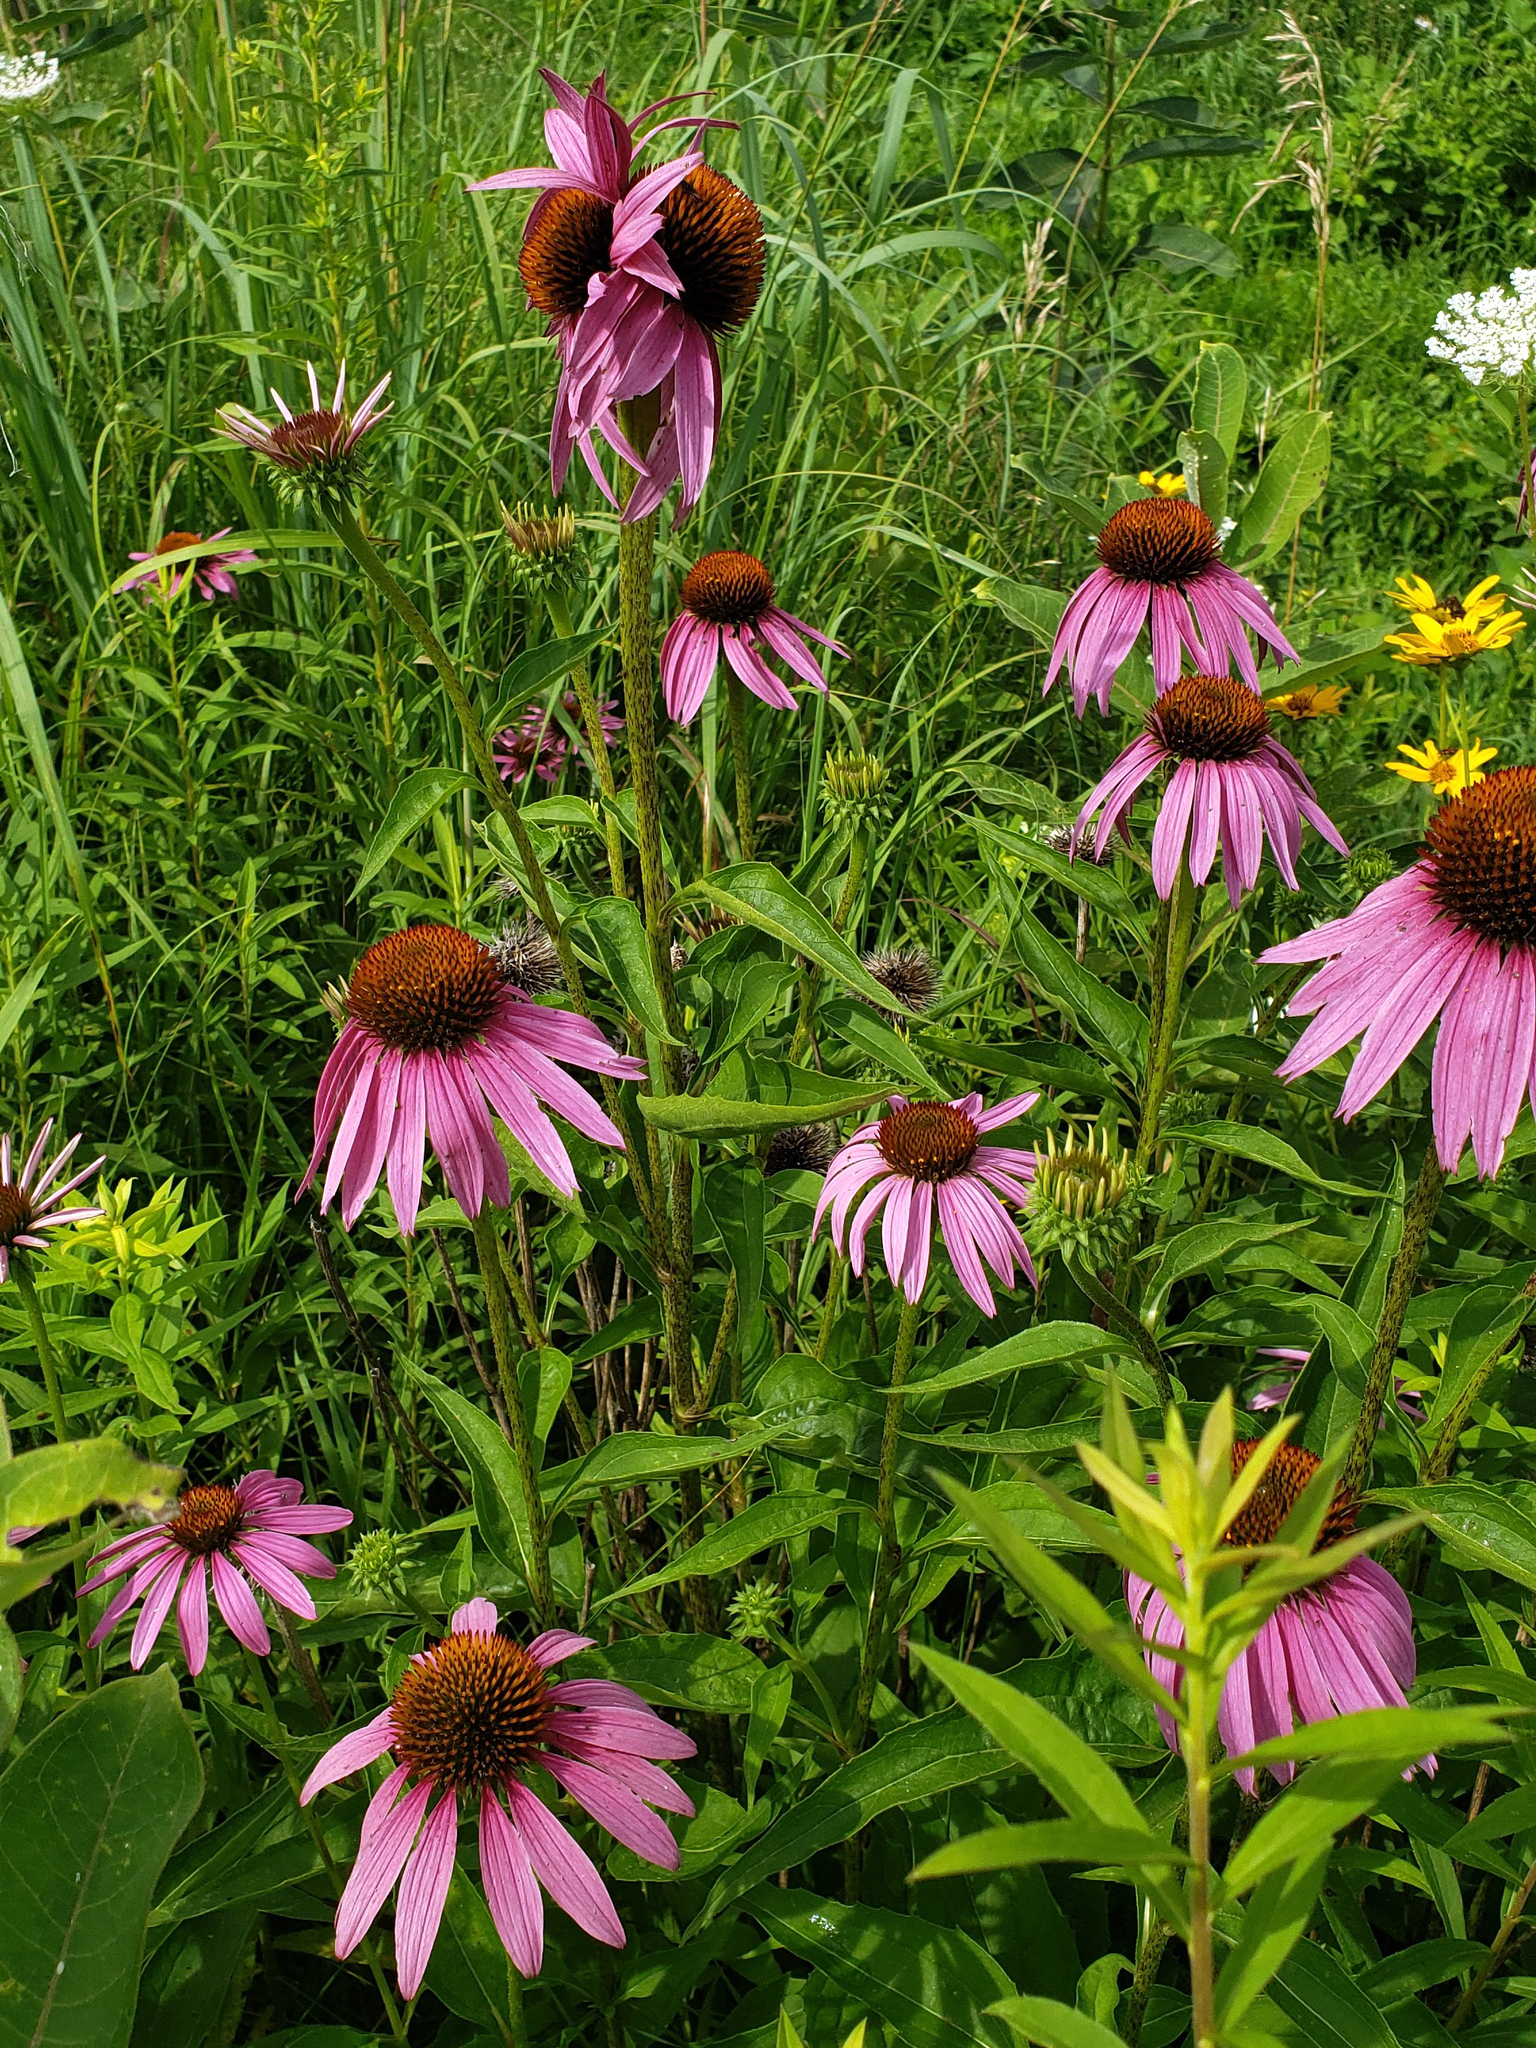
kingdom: Plantae
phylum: Tracheophyta
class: Magnoliopsida
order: Asterales
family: Asteraceae
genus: Echinacea
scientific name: Echinacea purpurea
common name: Broad-leaved purple coneflower
